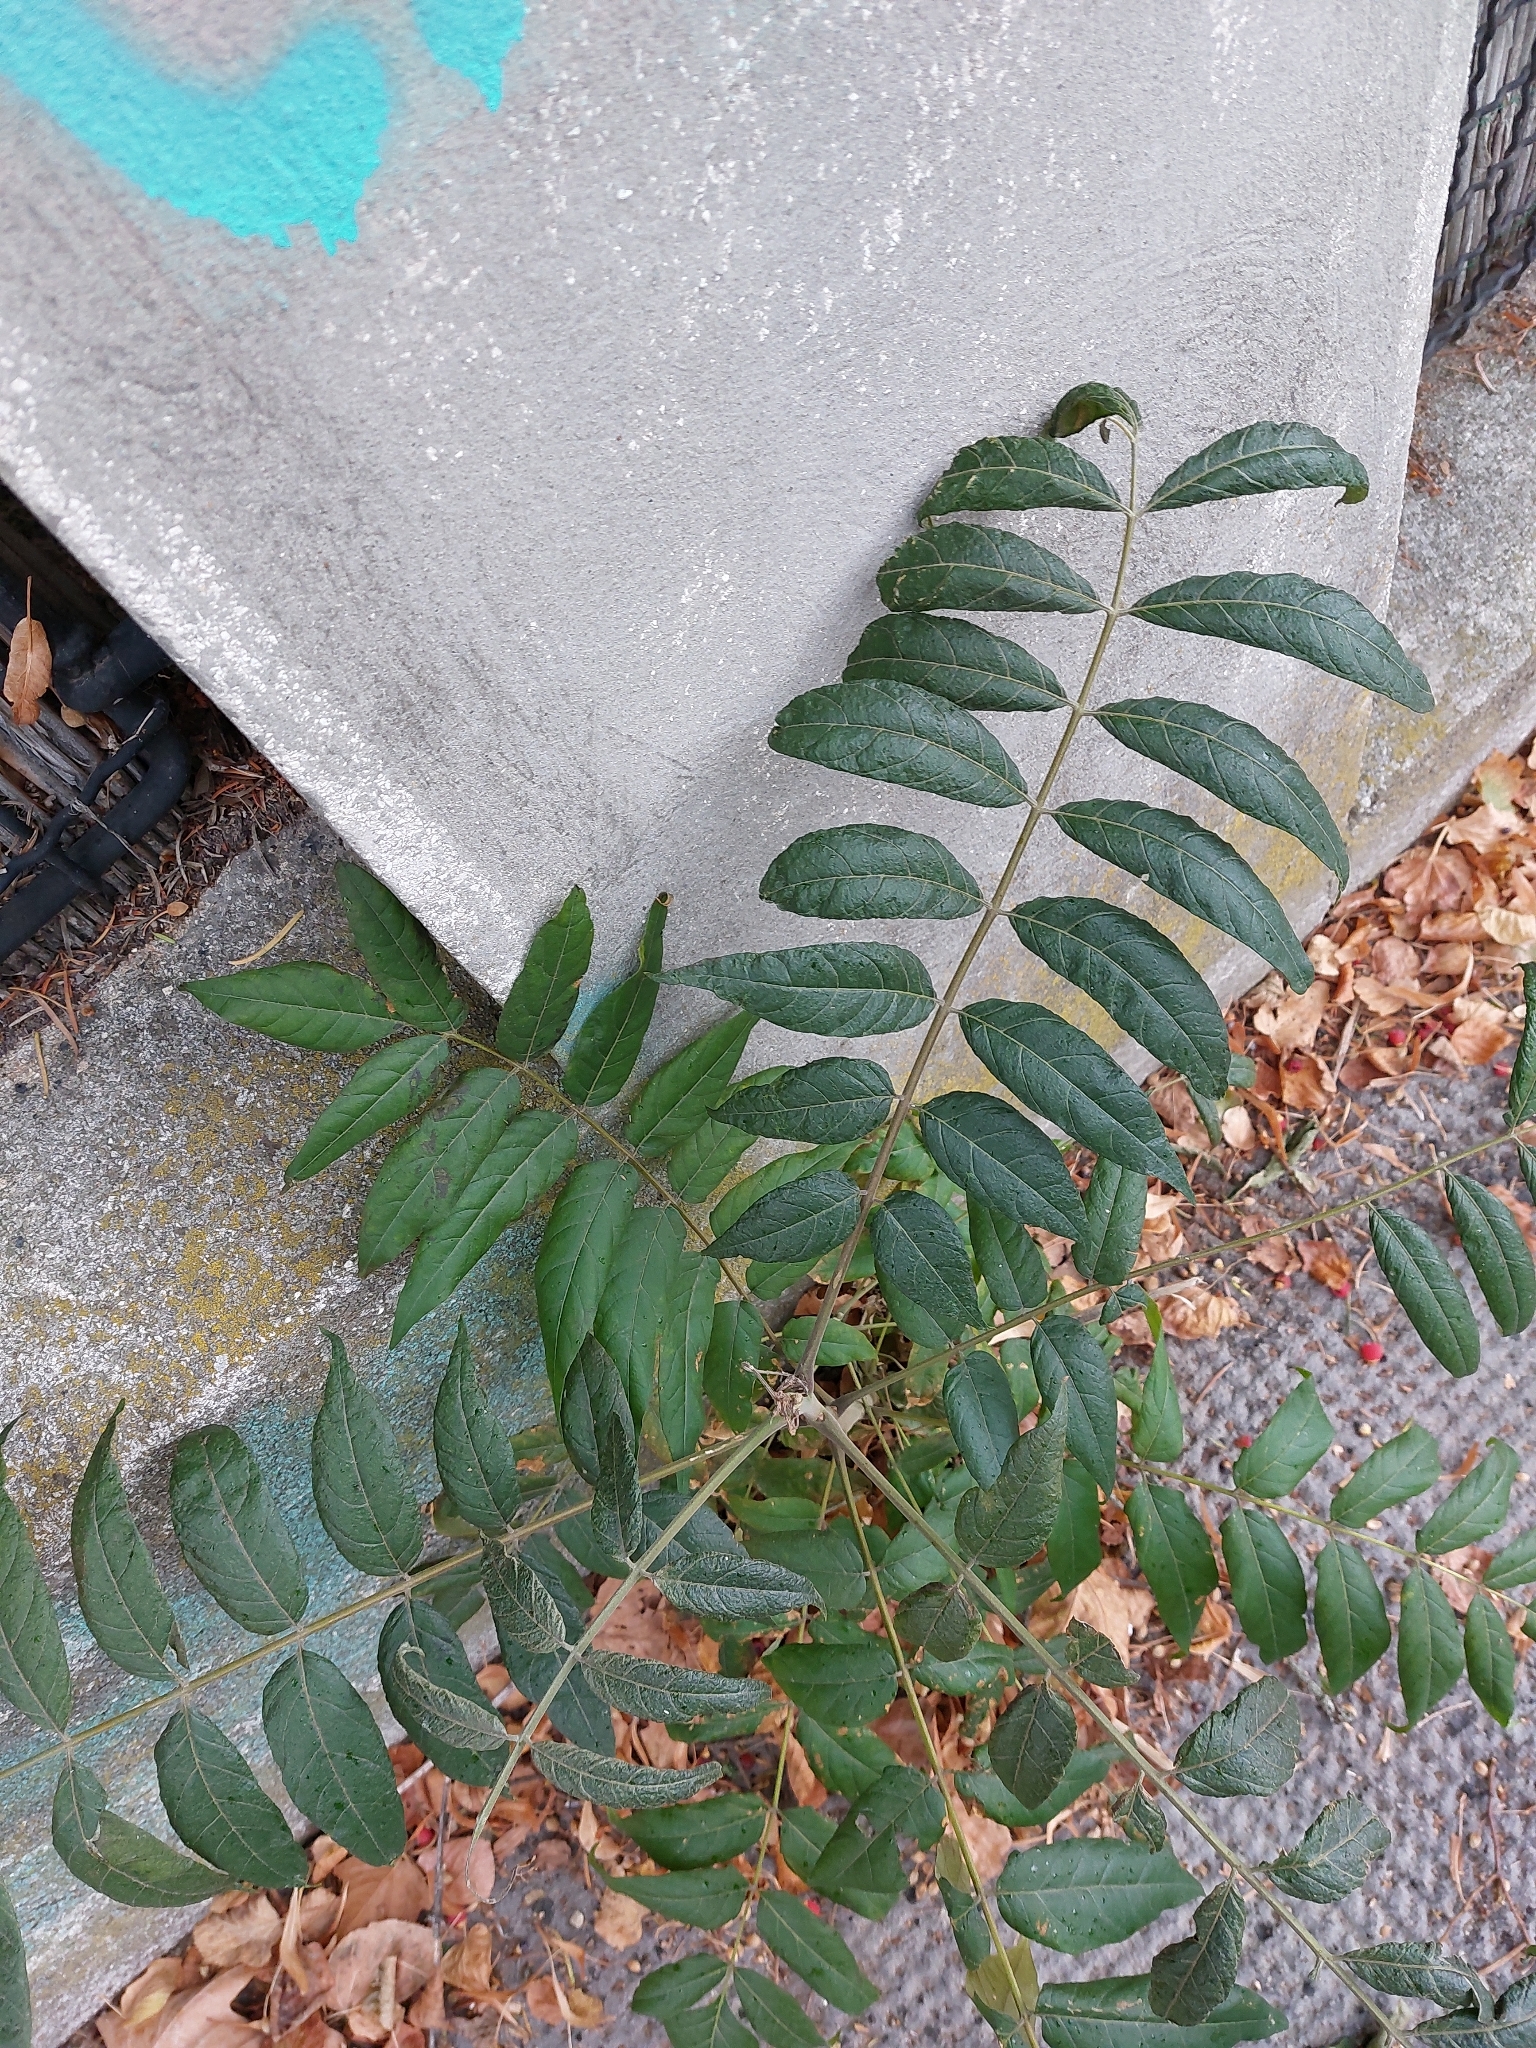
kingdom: Plantae
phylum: Tracheophyta
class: Magnoliopsida
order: Sapindales
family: Simaroubaceae
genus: Ailanthus
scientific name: Ailanthus altissima
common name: Tree-of-heaven
